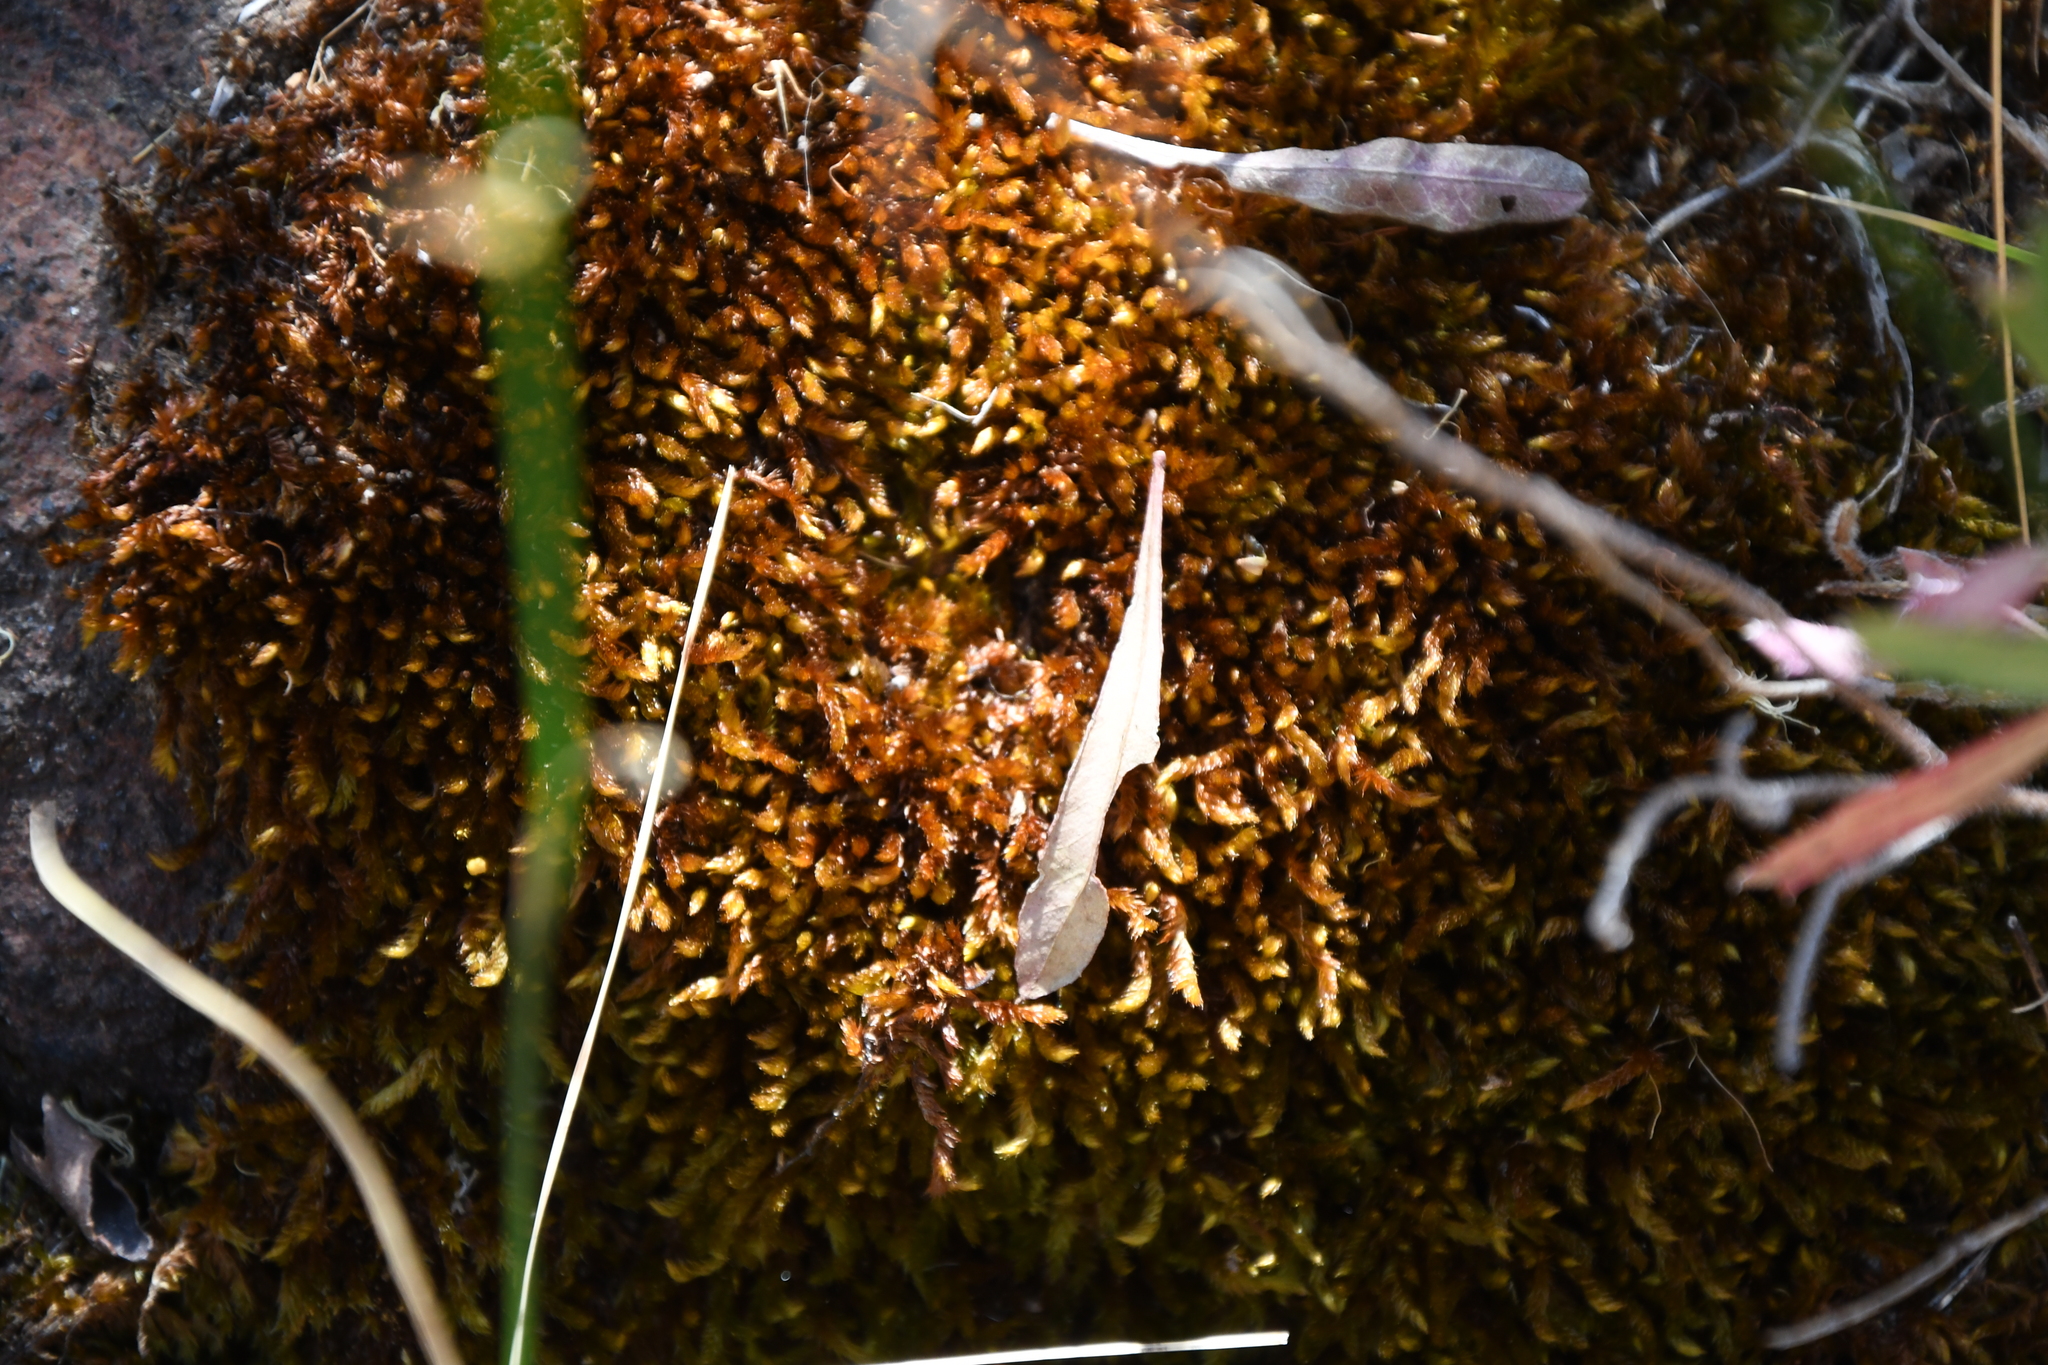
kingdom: Plantae
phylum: Bryophyta
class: Bryopsida
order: Hypnales
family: Sematophyllaceae
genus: Sematophyllum
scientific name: Sematophyllum homomallum
